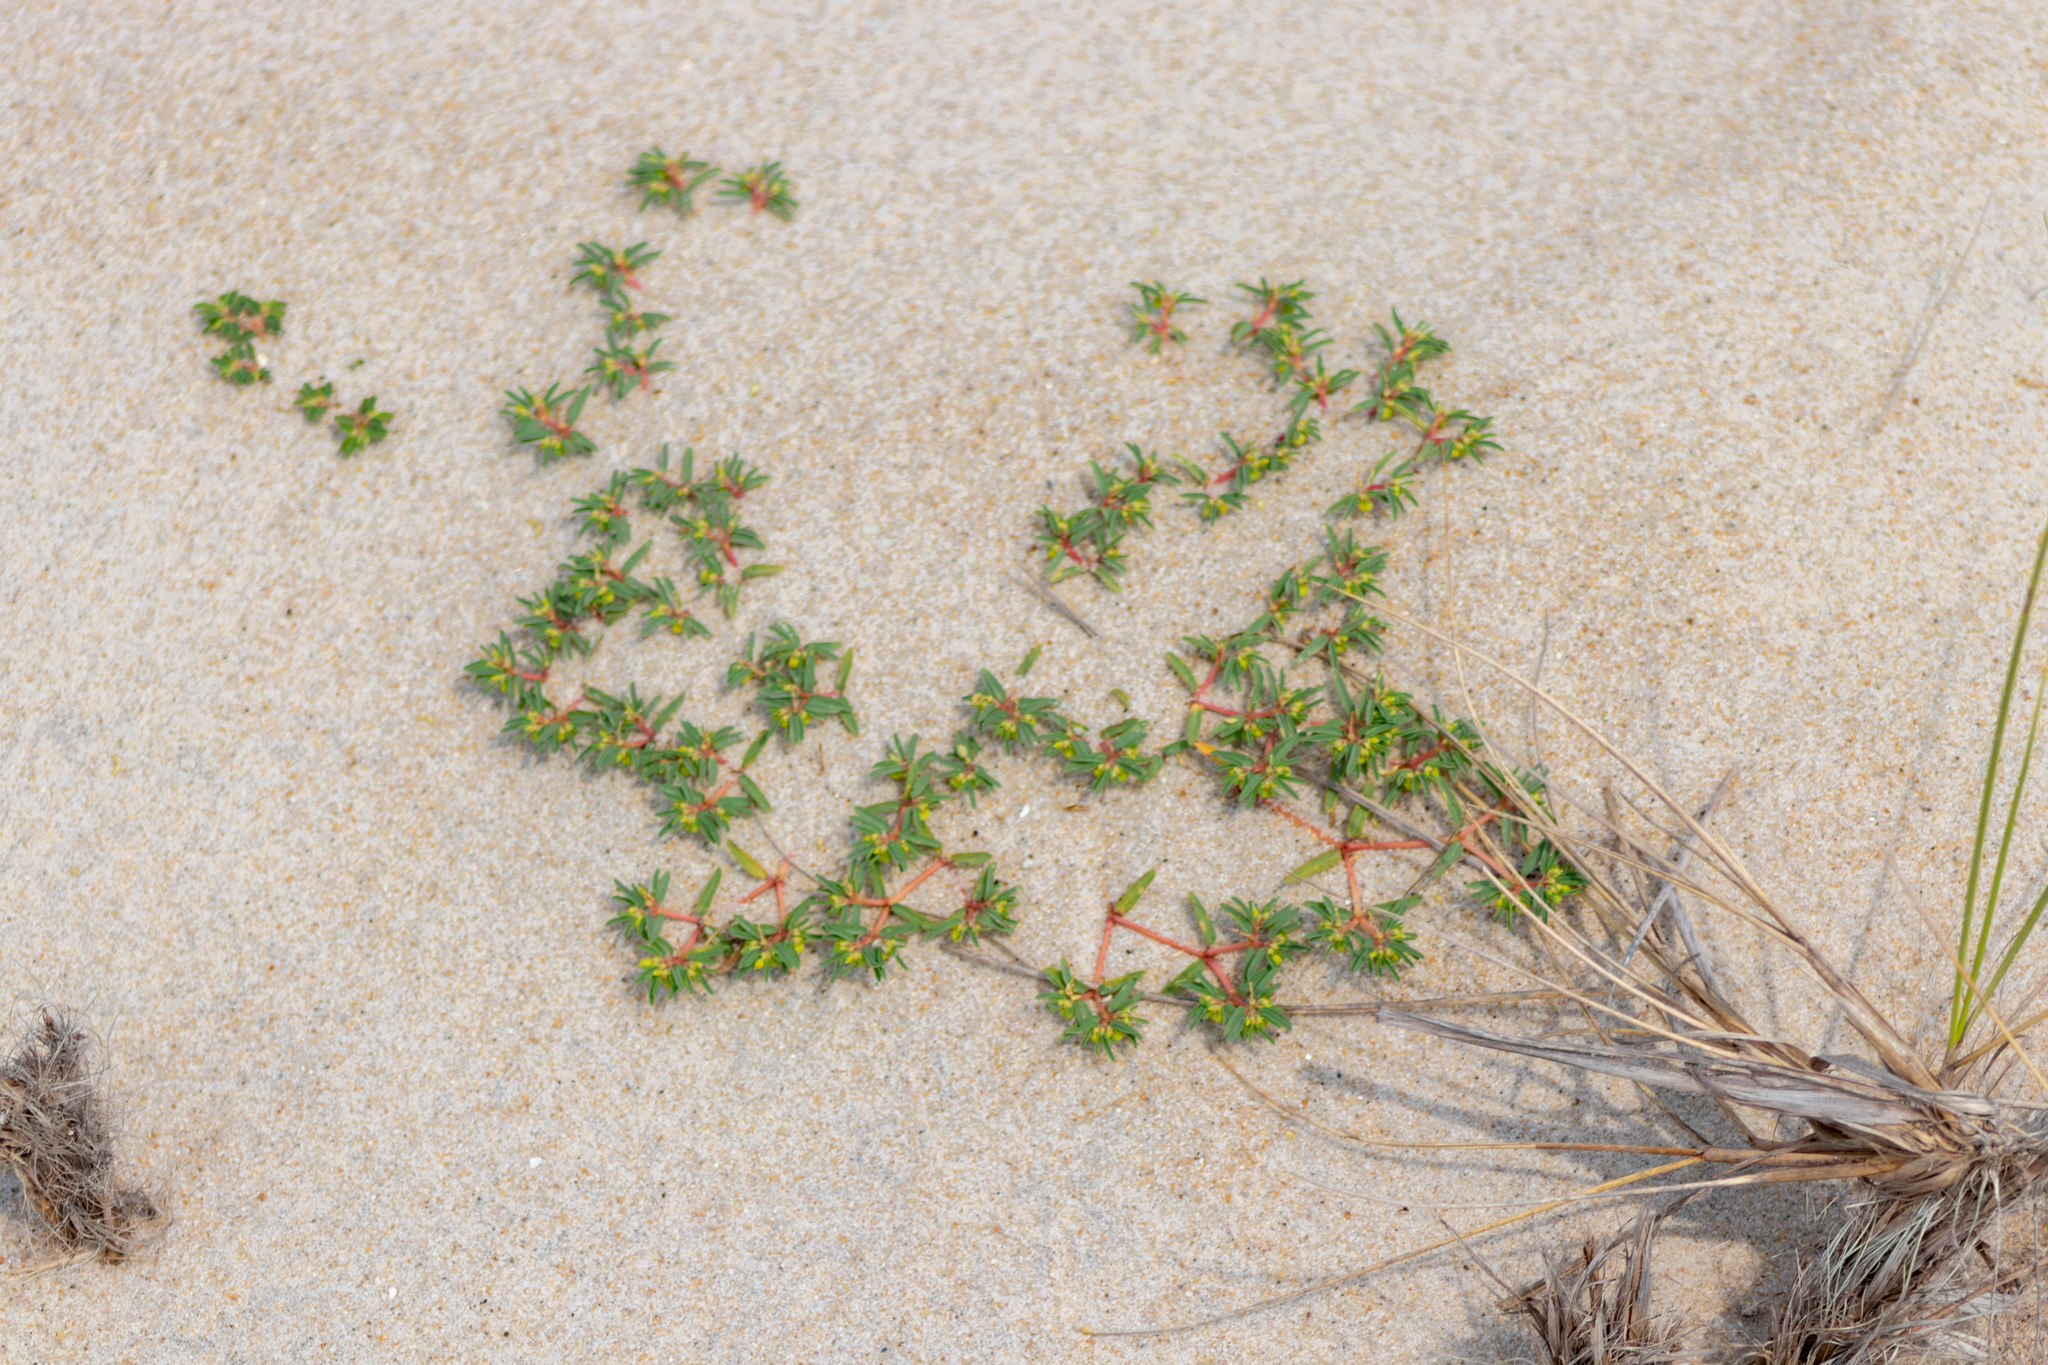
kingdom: Plantae
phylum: Tracheophyta
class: Magnoliopsida
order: Malpighiales
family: Euphorbiaceae
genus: Euphorbia
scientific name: Euphorbia polygonifolia
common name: Knotweed spurge
